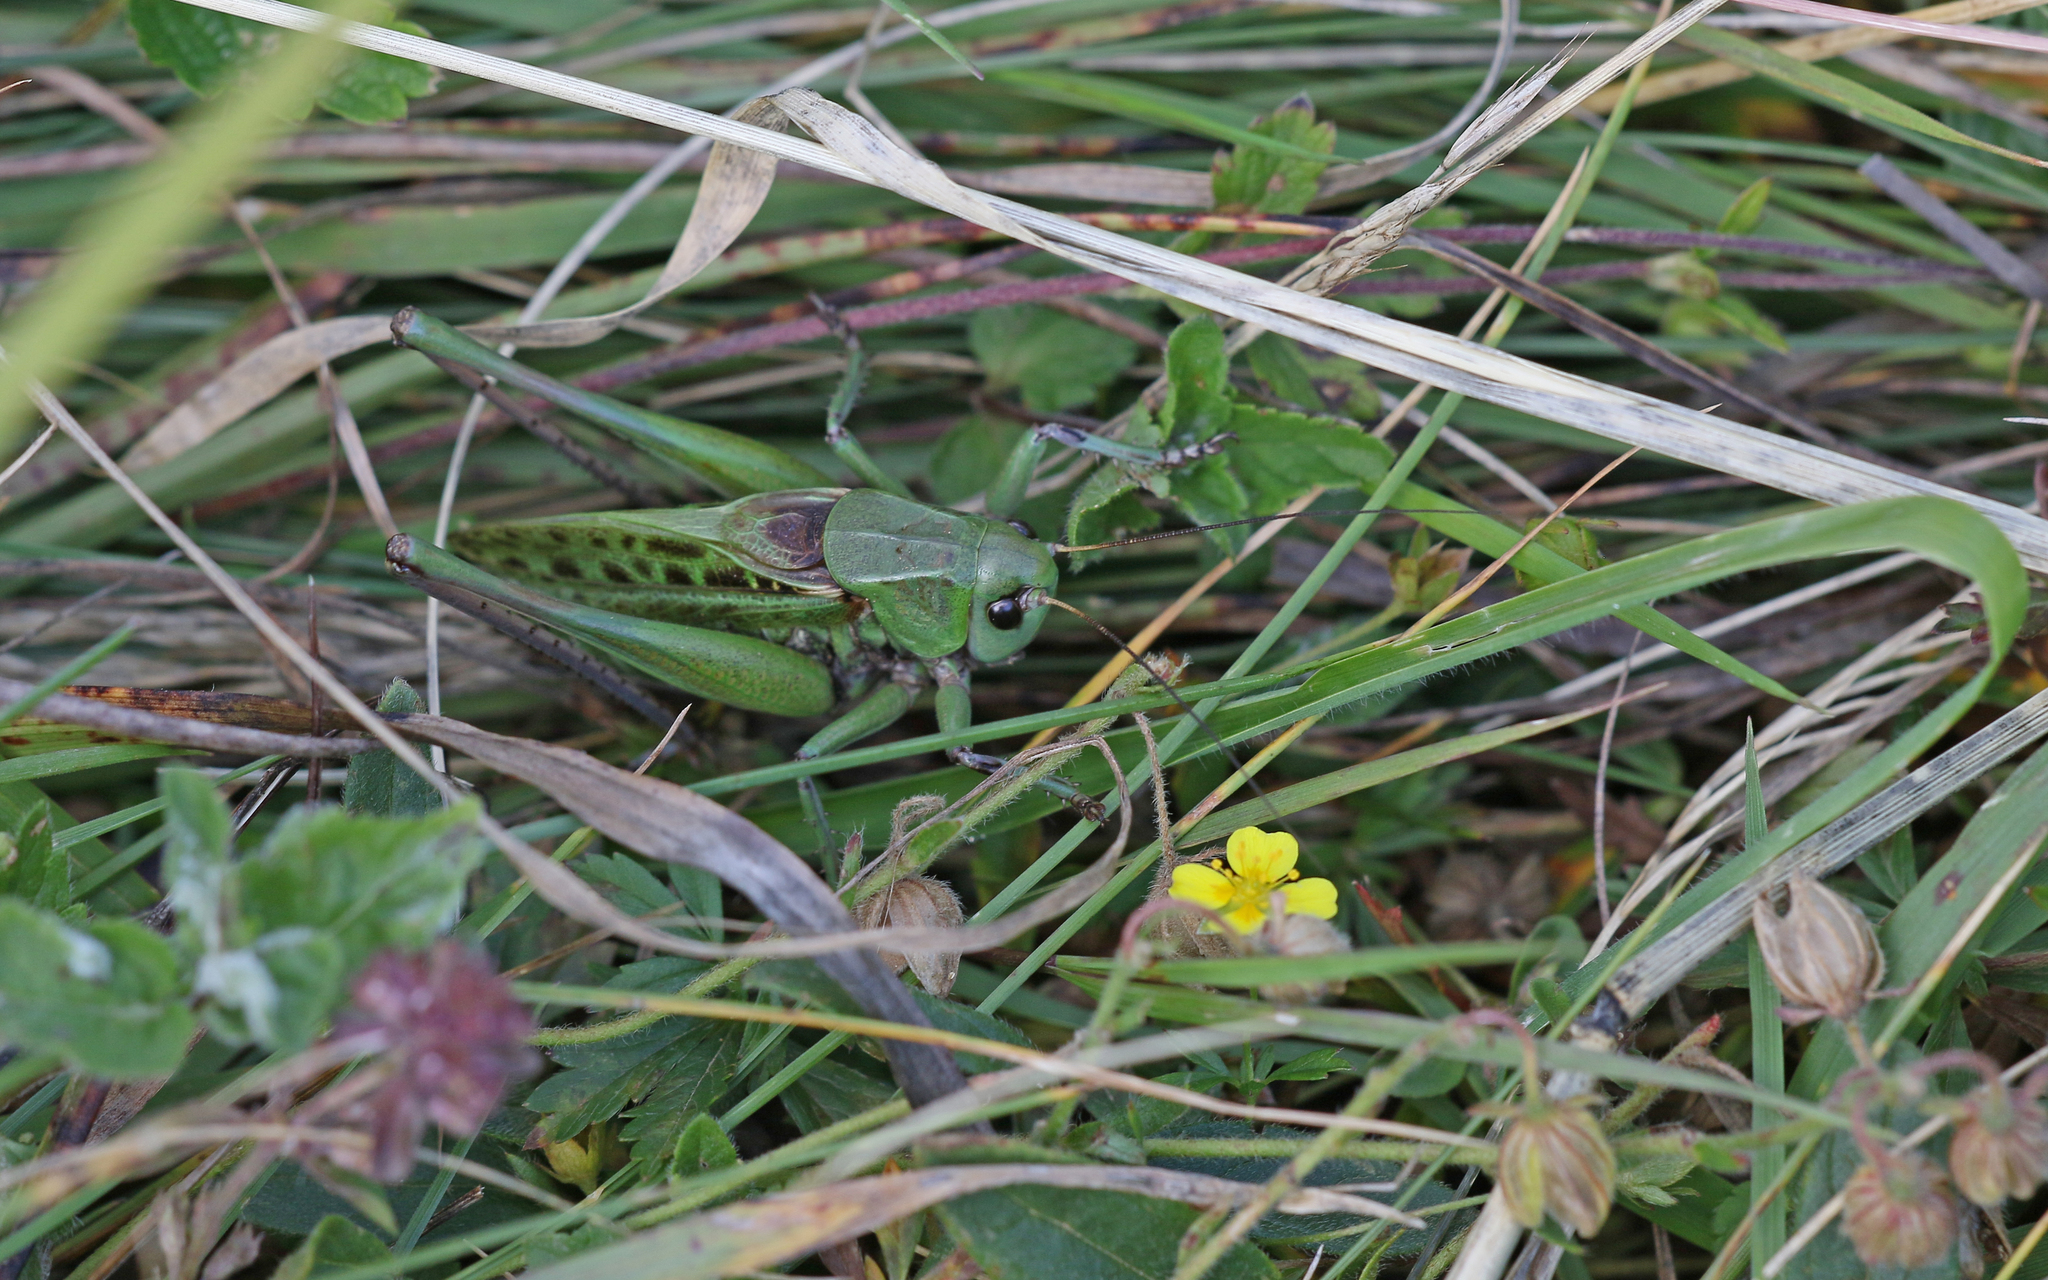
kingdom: Animalia
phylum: Arthropoda
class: Insecta
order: Orthoptera
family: Tettigoniidae
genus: Decticus
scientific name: Decticus verrucivorus
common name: Wart-biter
